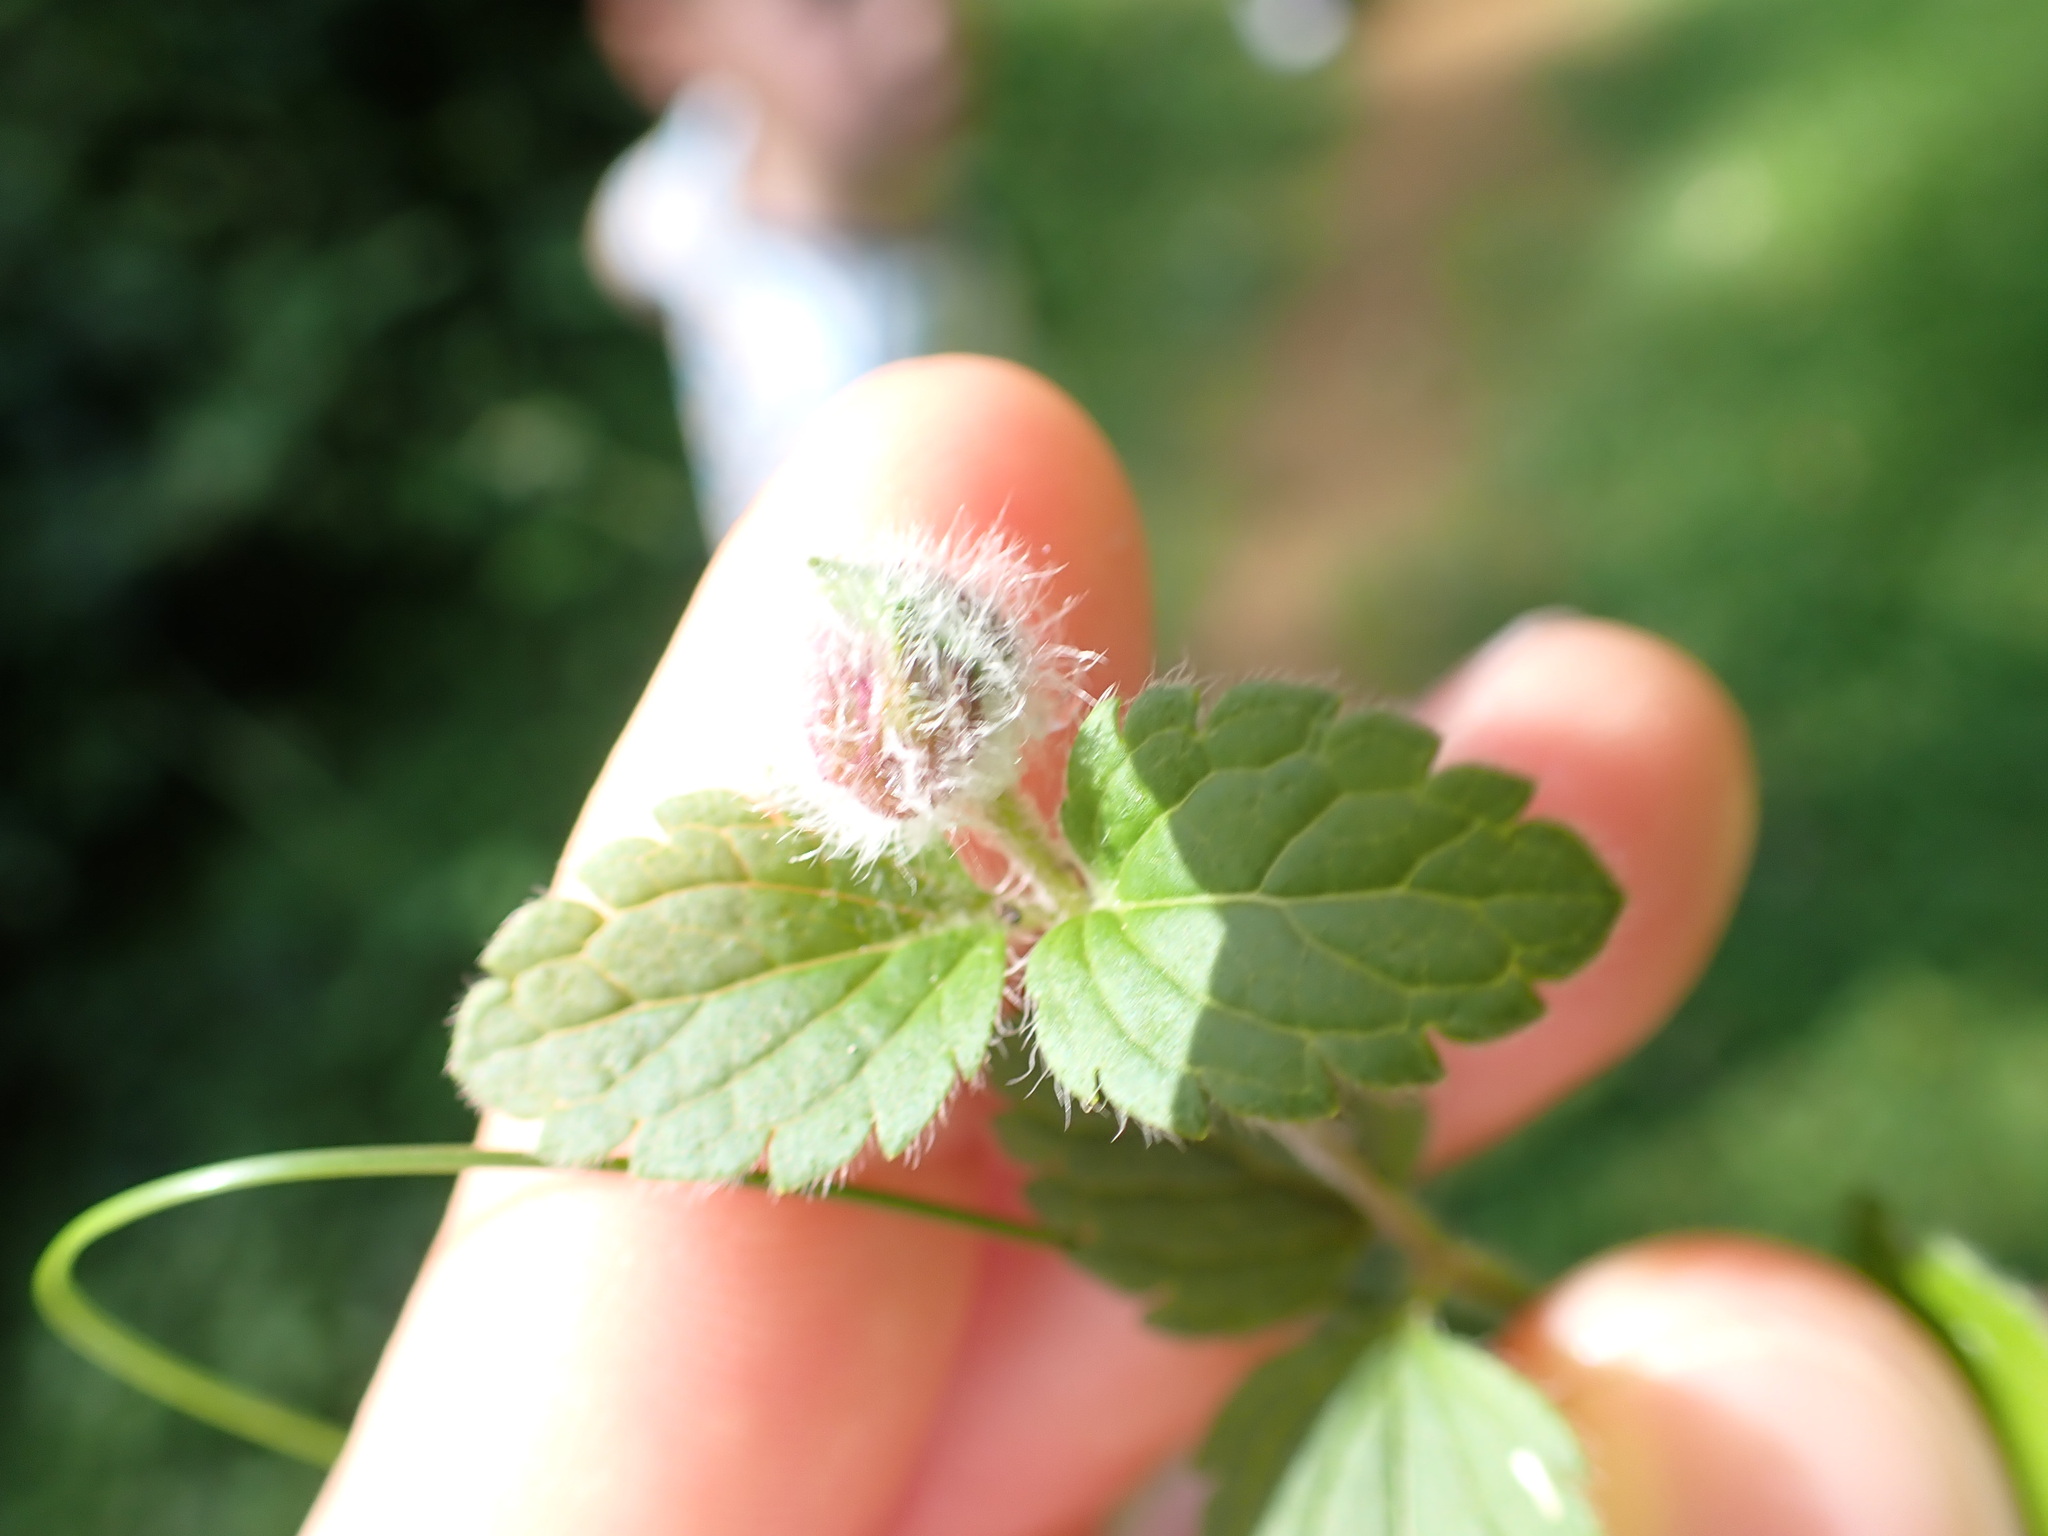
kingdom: Animalia
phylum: Arthropoda
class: Insecta
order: Diptera
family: Cecidomyiidae
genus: Jaapiella
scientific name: Jaapiella veronicae
